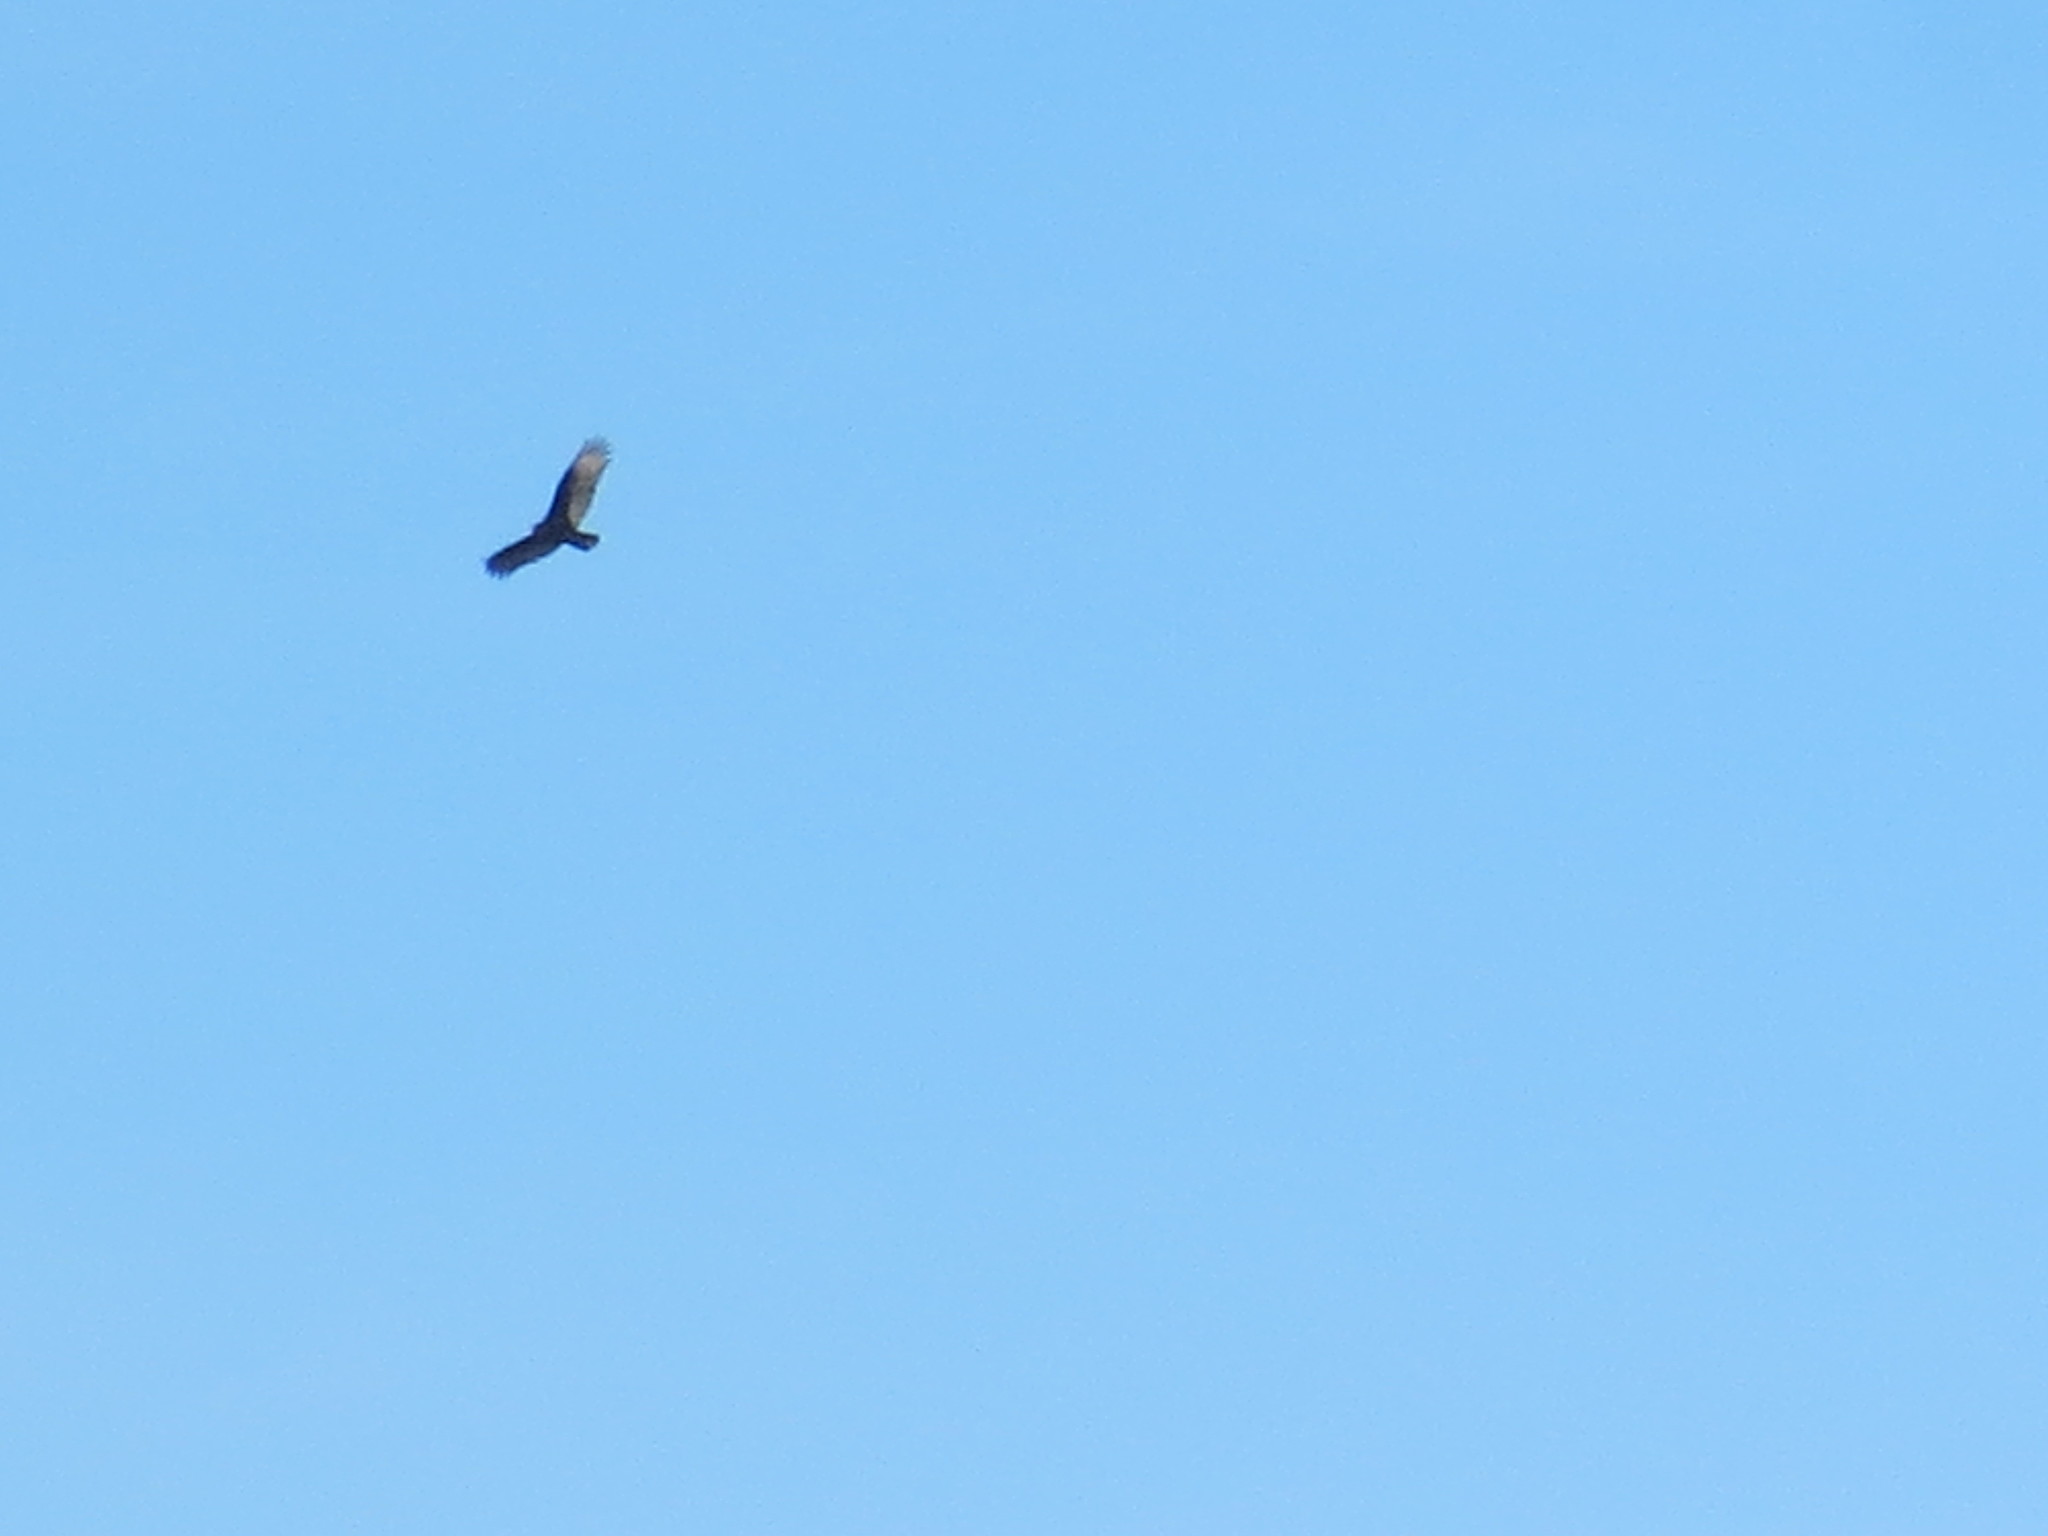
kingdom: Animalia
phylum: Chordata
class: Aves
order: Accipitriformes
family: Cathartidae
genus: Cathartes
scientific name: Cathartes aura
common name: Turkey vulture
